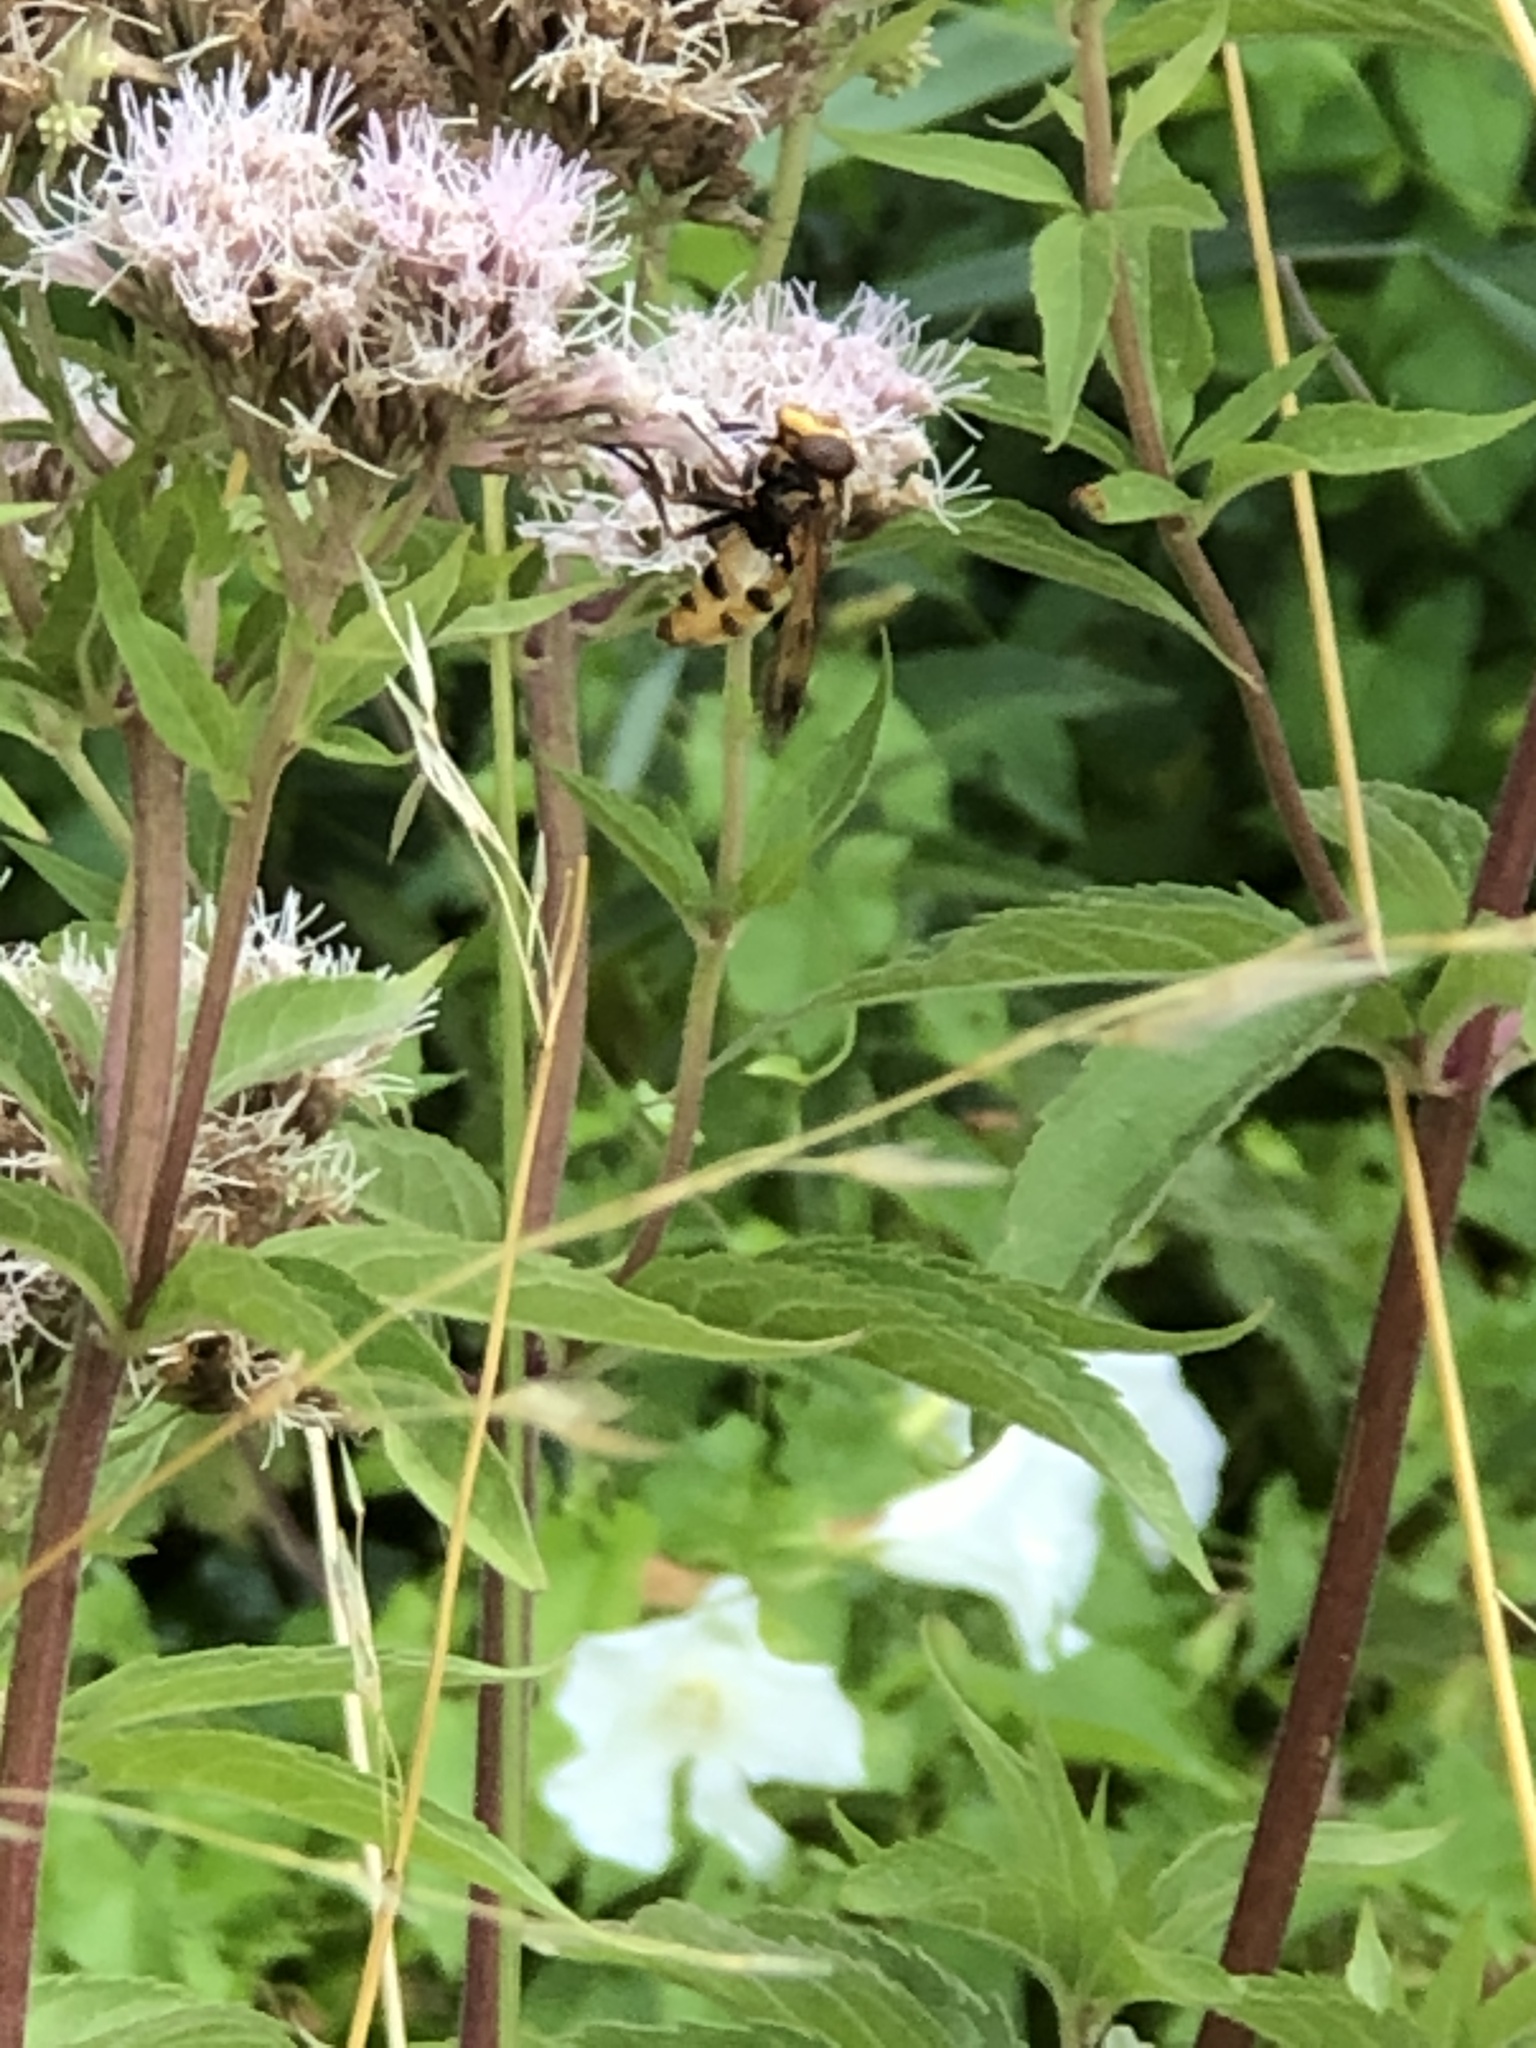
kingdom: Animalia
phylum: Arthropoda
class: Insecta
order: Diptera
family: Syrphidae
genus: Volucella
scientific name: Volucella inanis
